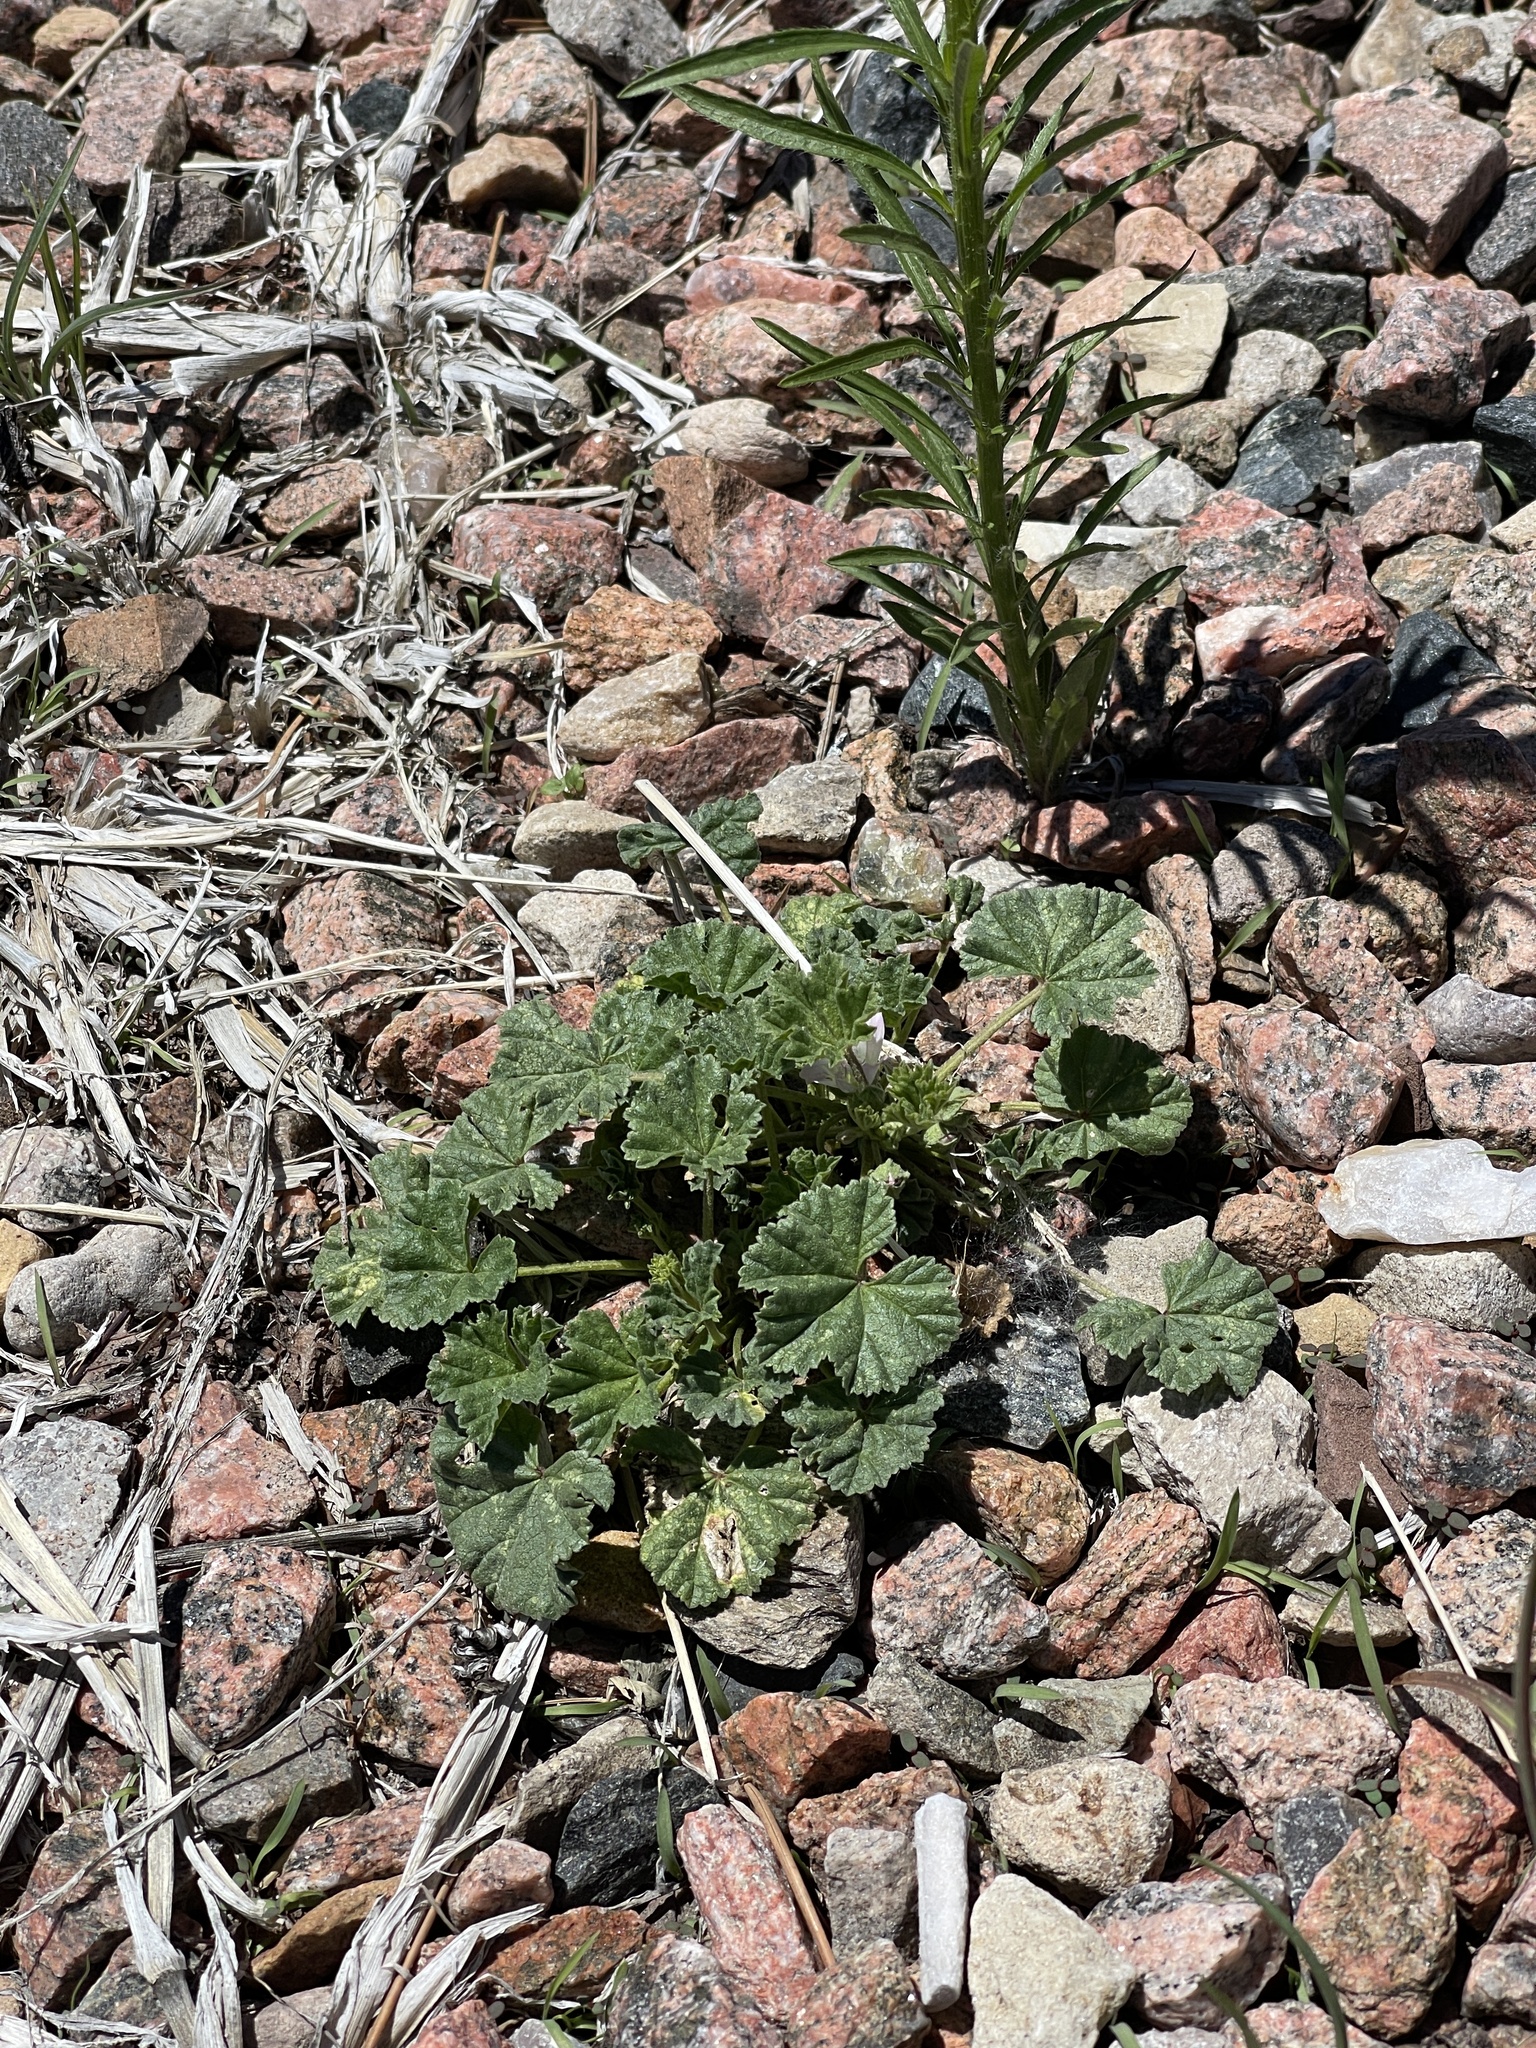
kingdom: Plantae
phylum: Tracheophyta
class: Magnoliopsida
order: Malvales
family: Malvaceae
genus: Malva
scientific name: Malva neglecta
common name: Common mallow
